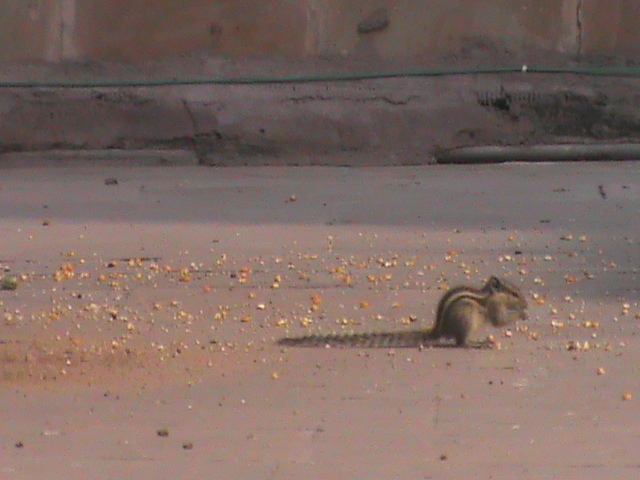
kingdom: Animalia
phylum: Chordata
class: Mammalia
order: Rodentia
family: Sciuridae
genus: Funambulus
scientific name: Funambulus pennantii
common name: Northern palm squirrel
